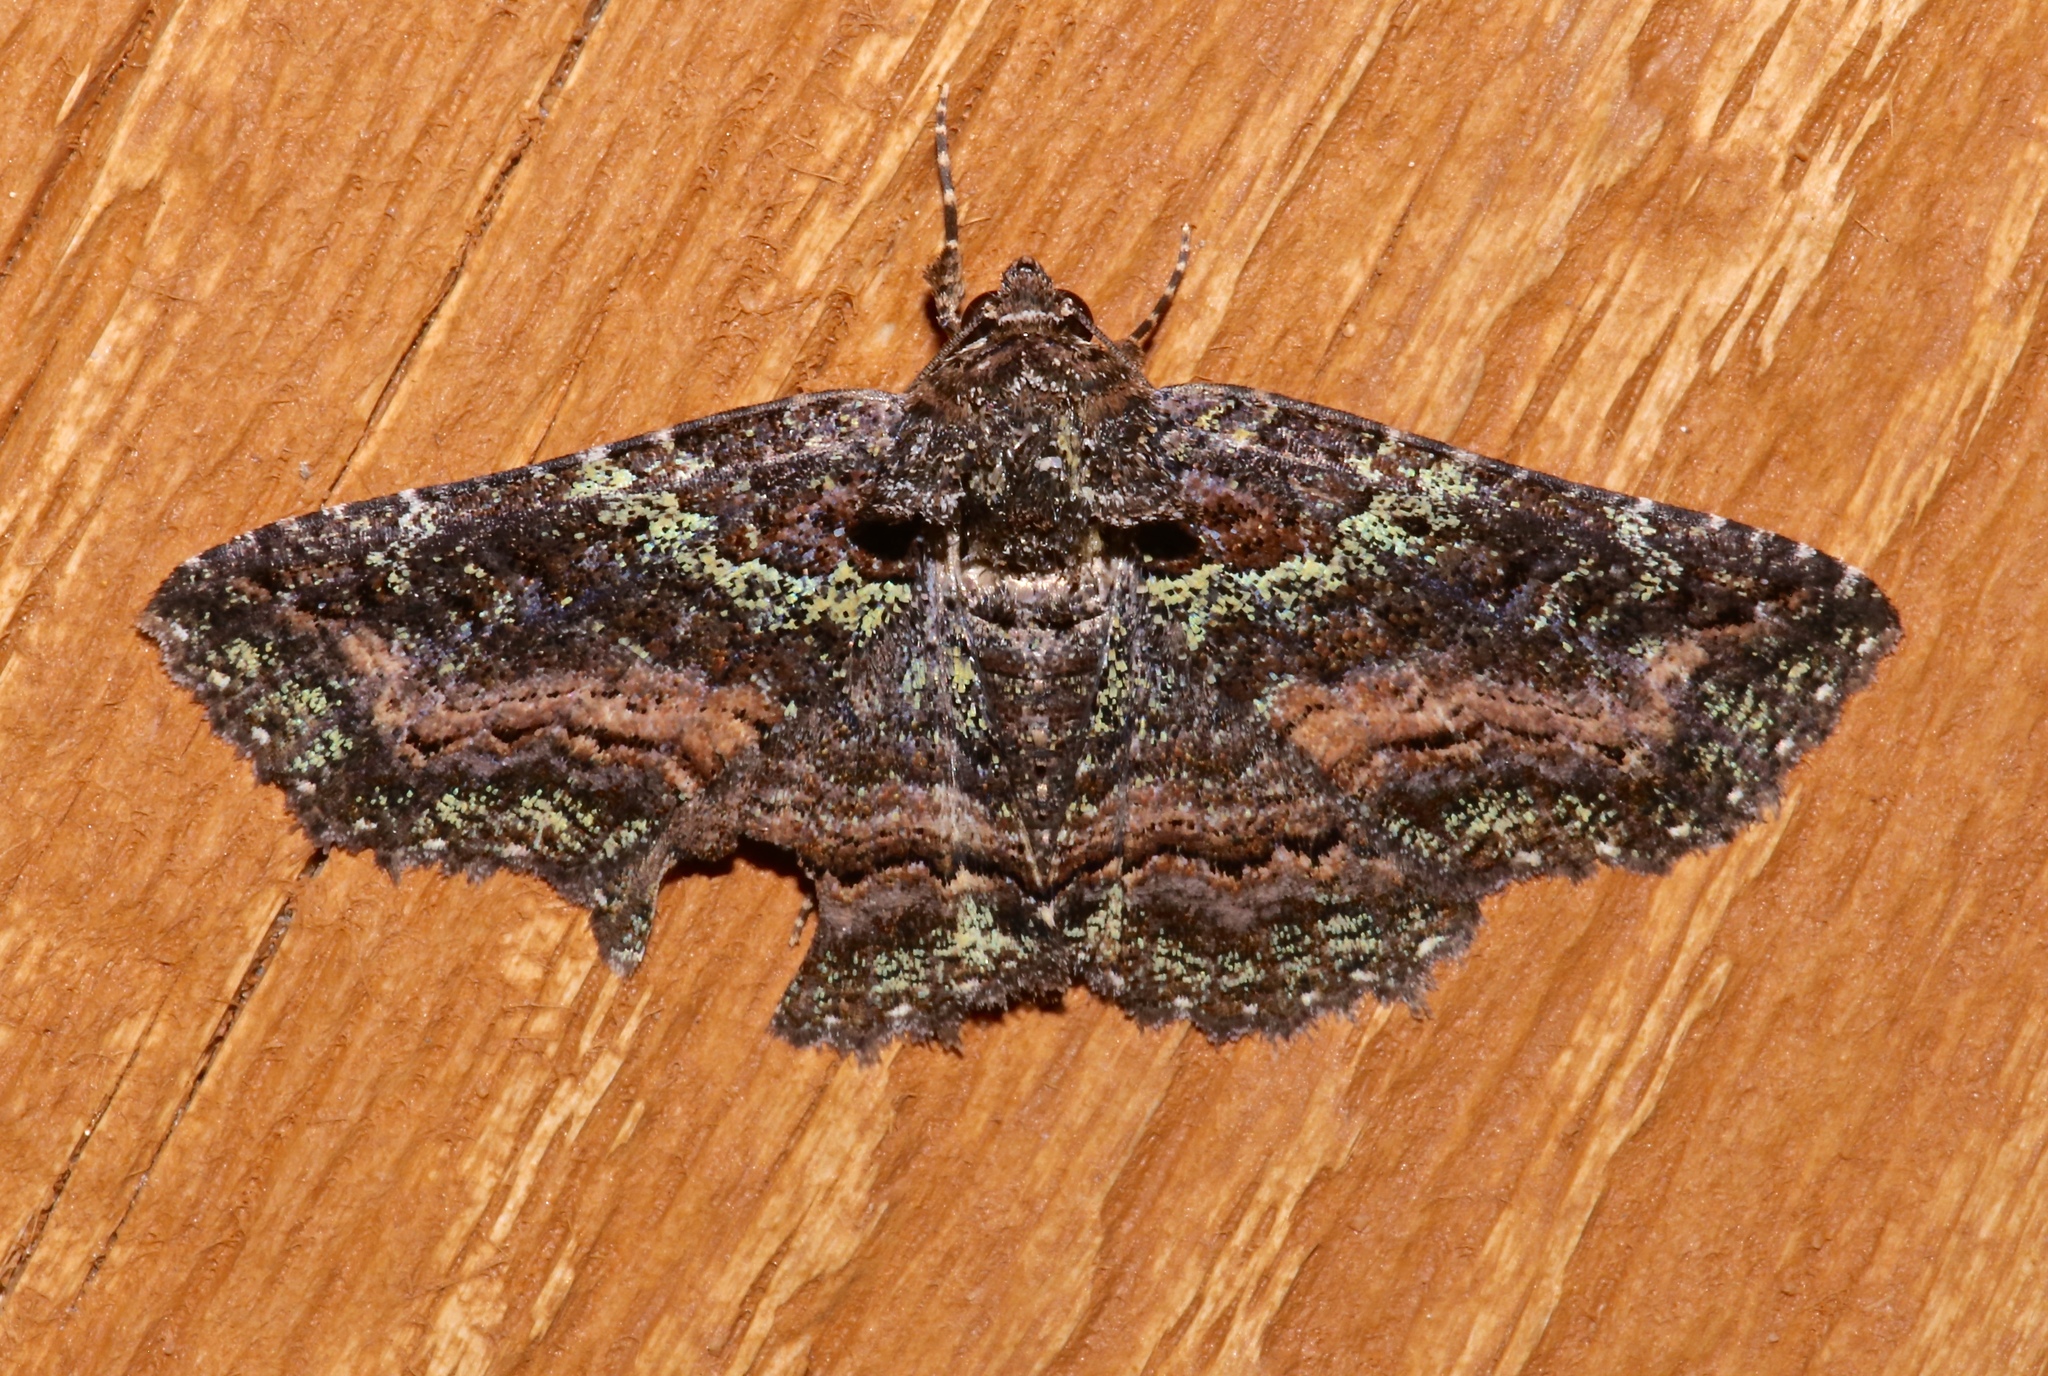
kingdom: Animalia
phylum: Arthropoda
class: Insecta
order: Lepidoptera
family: Erebidae
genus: Zale
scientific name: Zale aeruginosa
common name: Green-dusted zale moth
